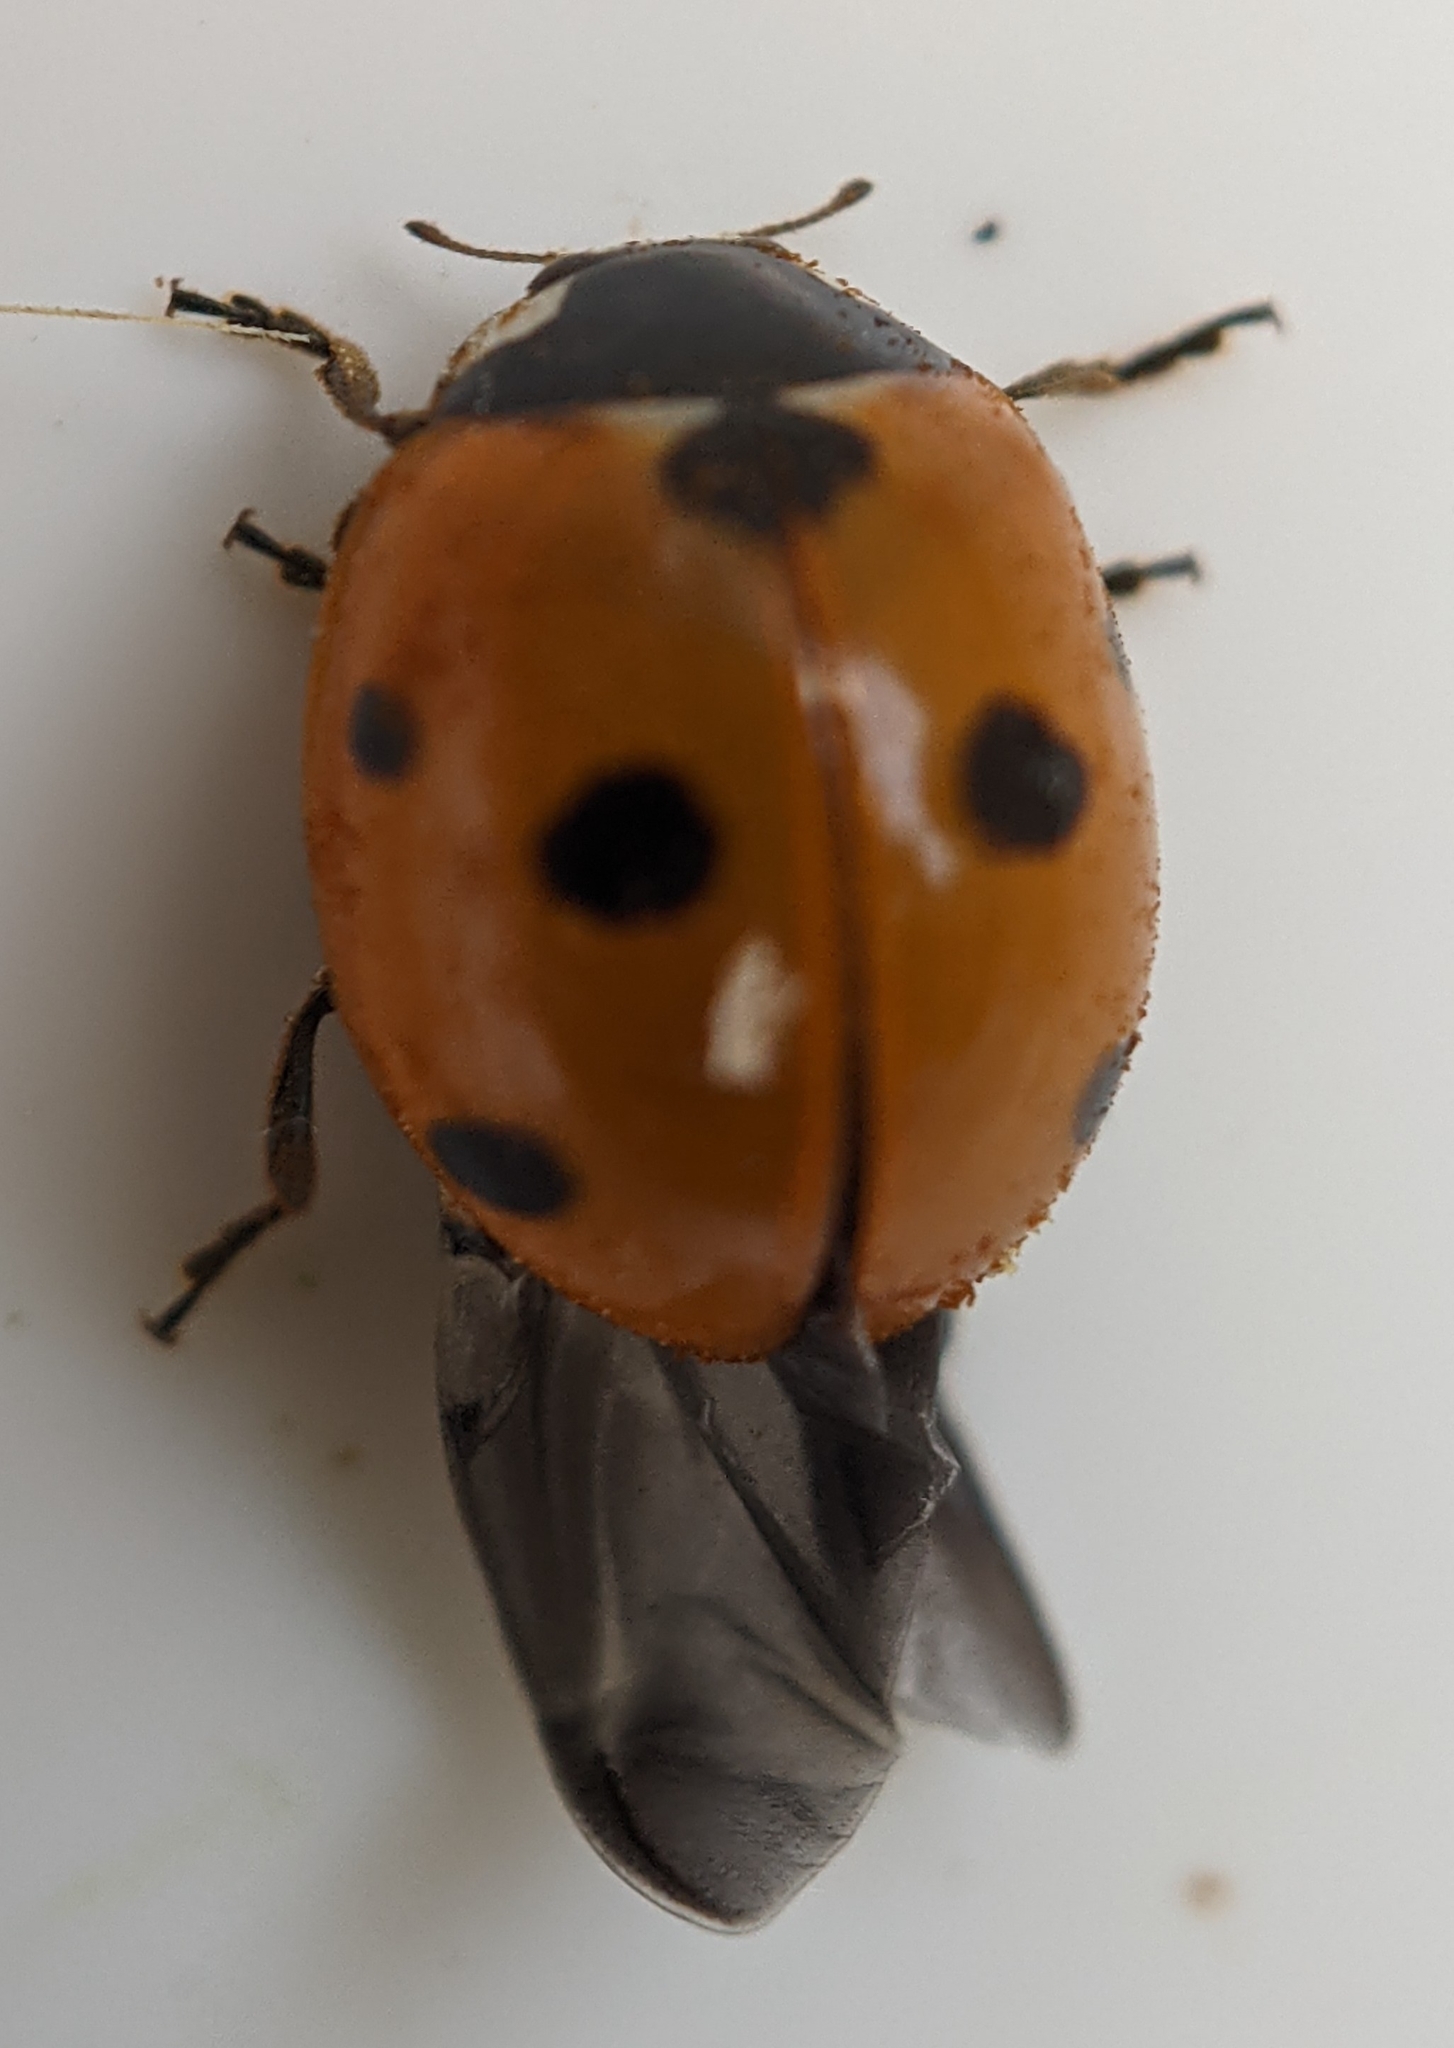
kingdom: Animalia
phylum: Arthropoda
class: Insecta
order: Coleoptera
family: Coccinellidae
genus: Coccinella
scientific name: Coccinella septempunctata
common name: Sevenspotted lady beetle
